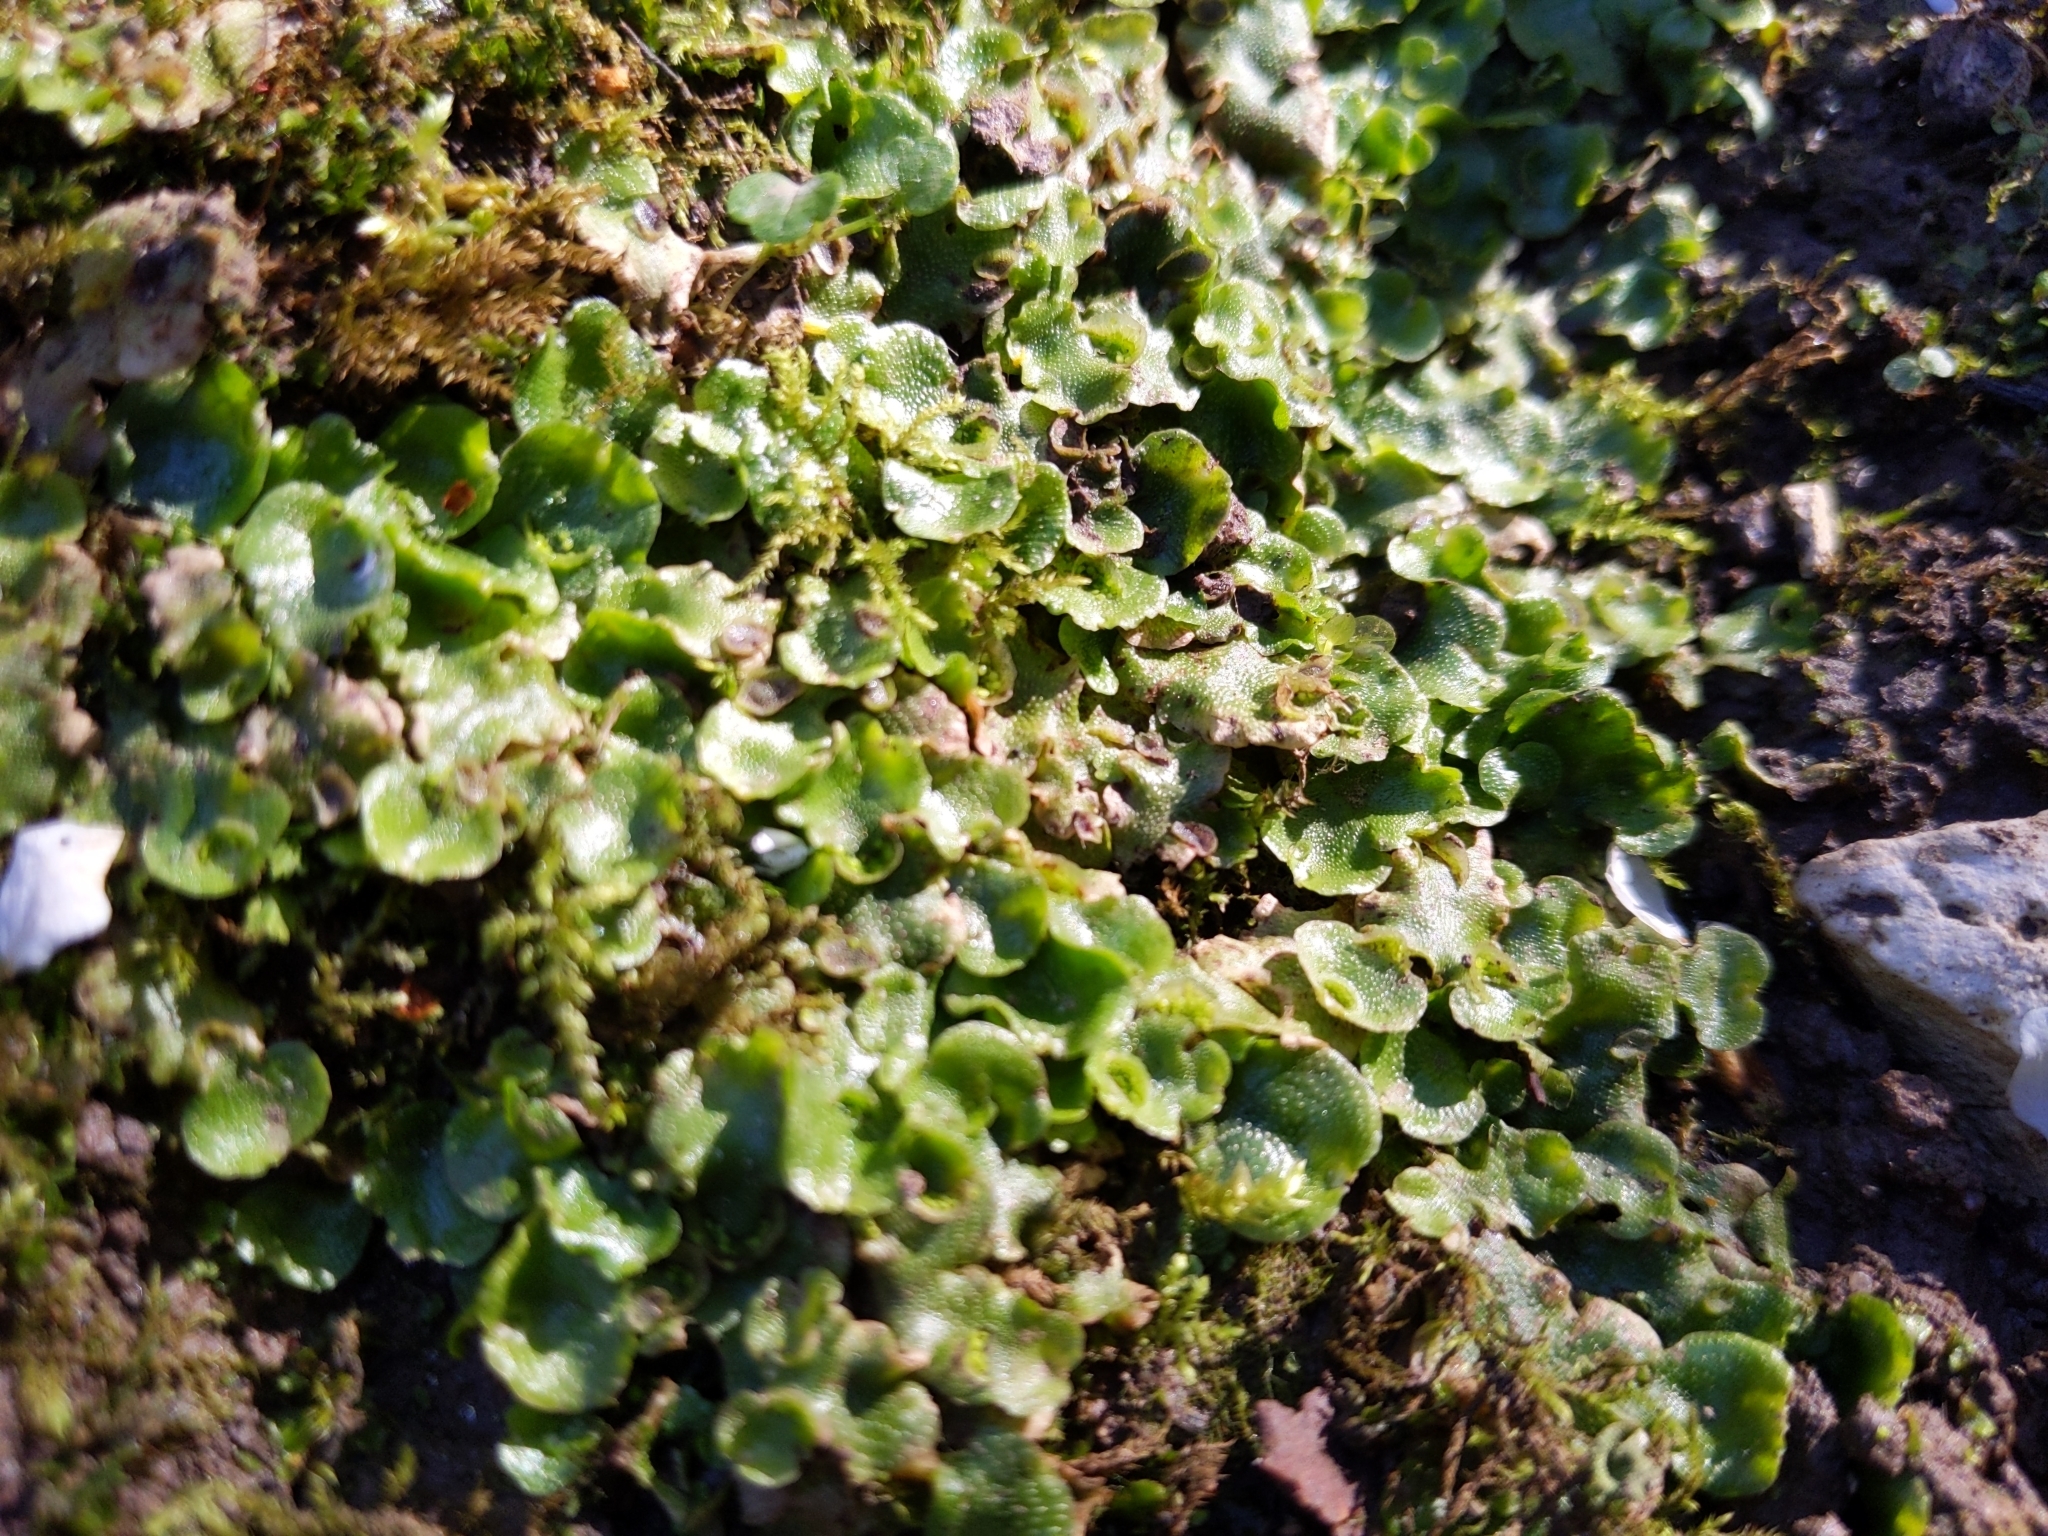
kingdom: Plantae
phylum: Marchantiophyta
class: Marchantiopsida
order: Lunulariales
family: Lunulariaceae
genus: Lunularia
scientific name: Lunularia cruciata
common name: Crescent-cup liverwort
